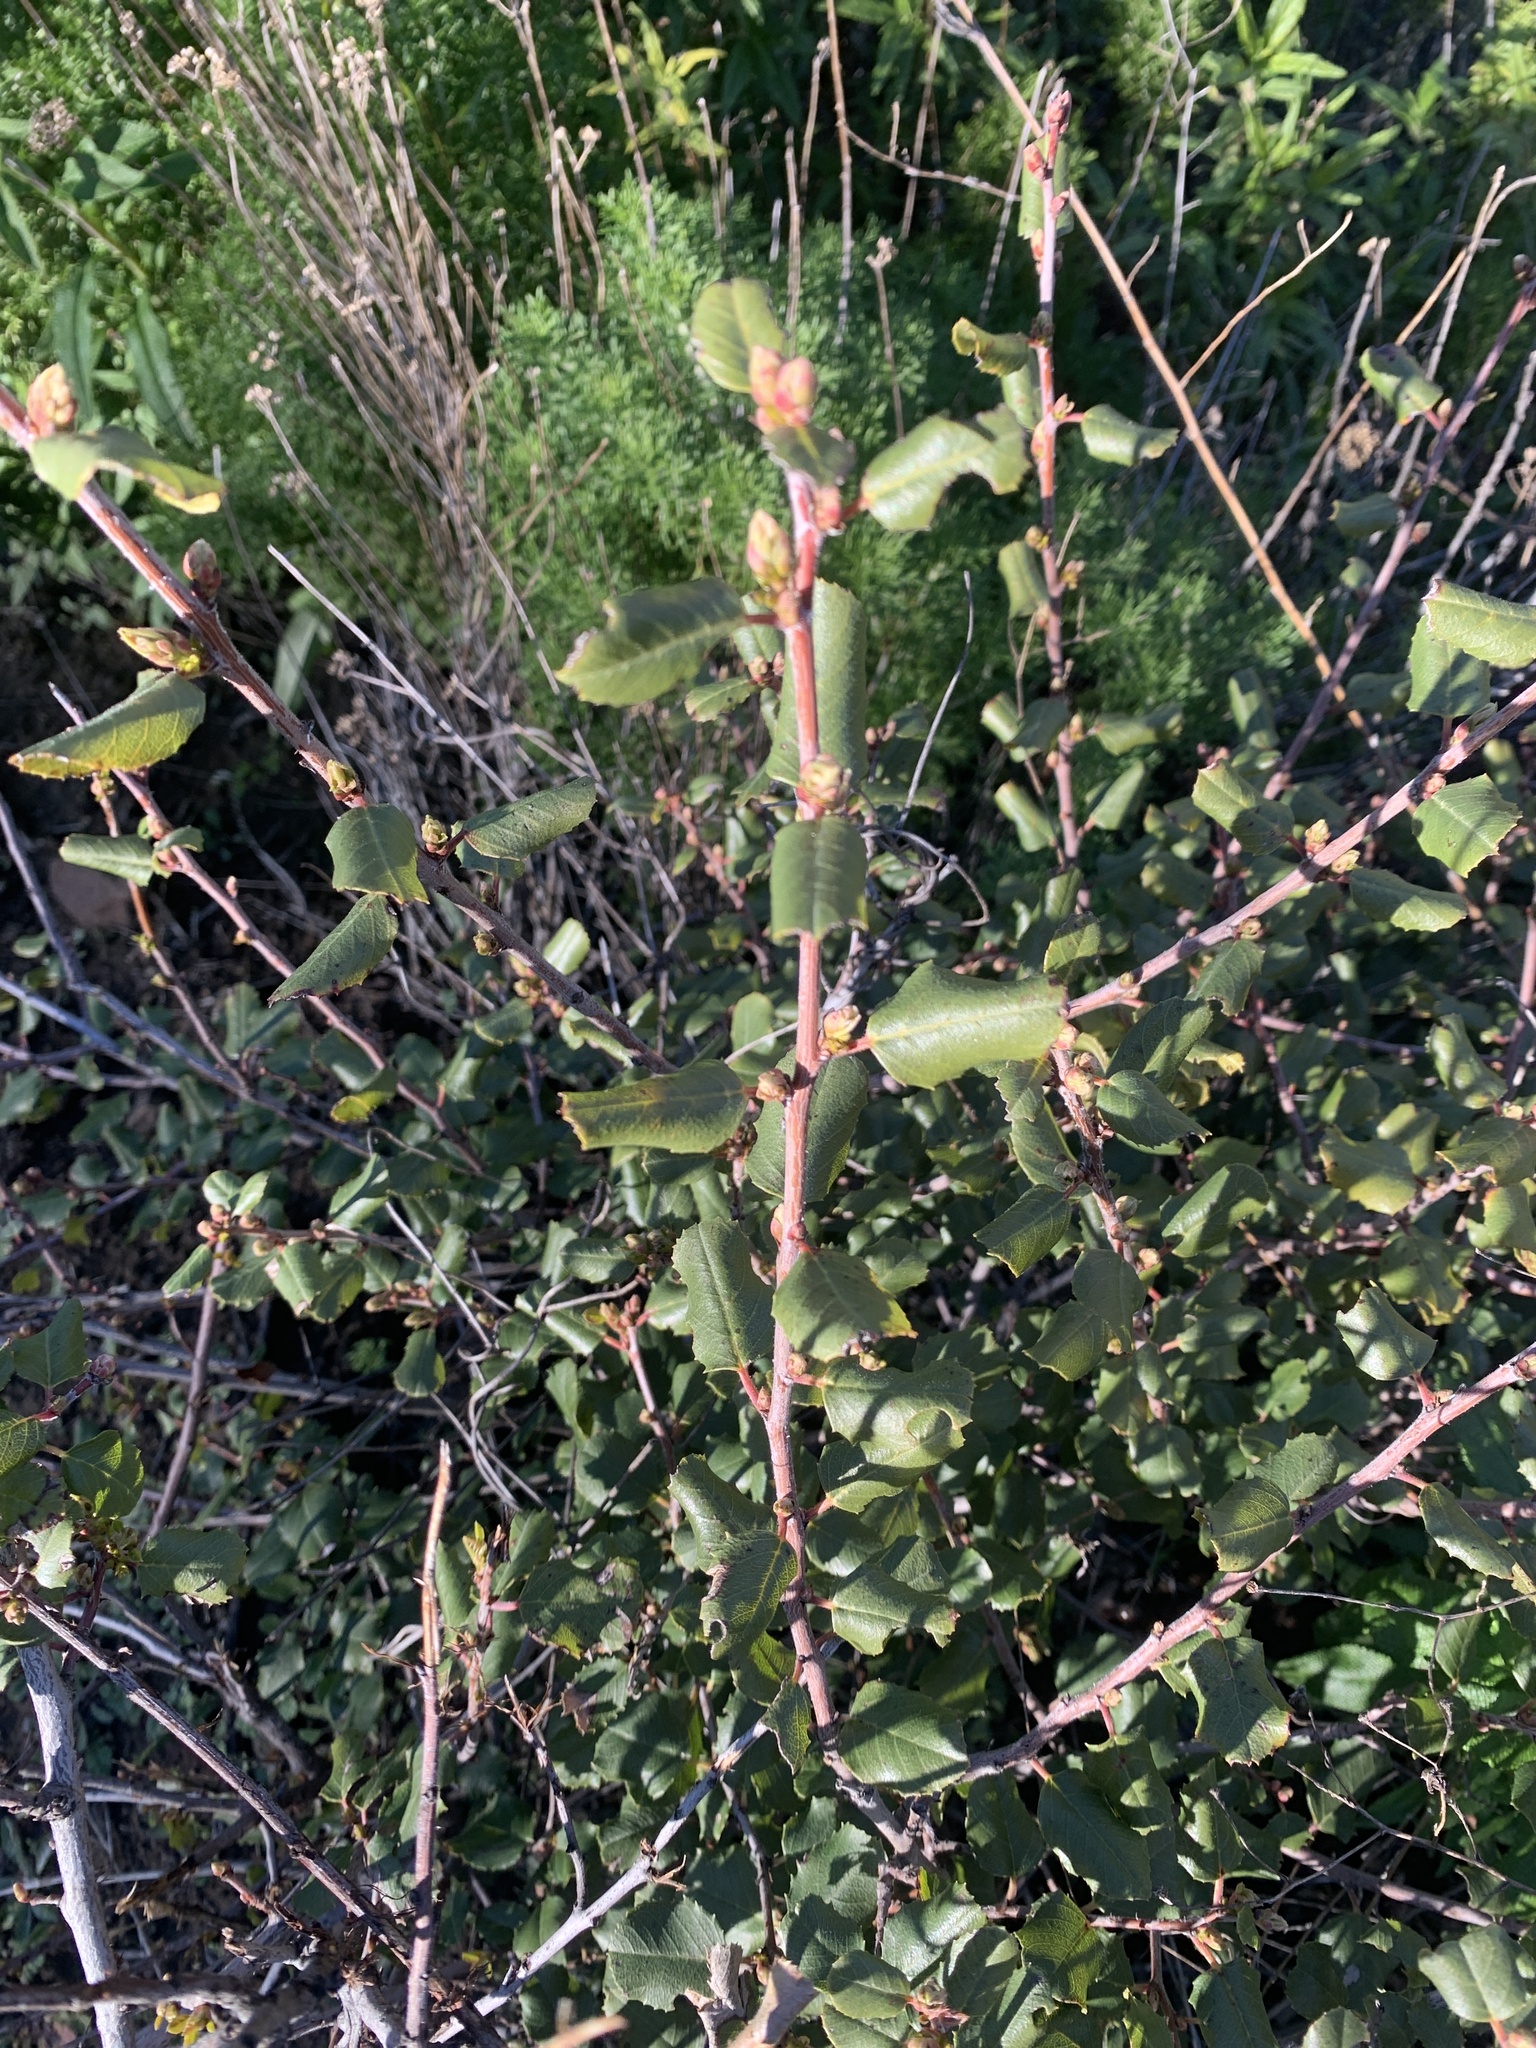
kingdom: Plantae
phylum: Tracheophyta
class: Magnoliopsida
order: Rosales
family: Rhamnaceae
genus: Endotropis
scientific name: Endotropis crocea
